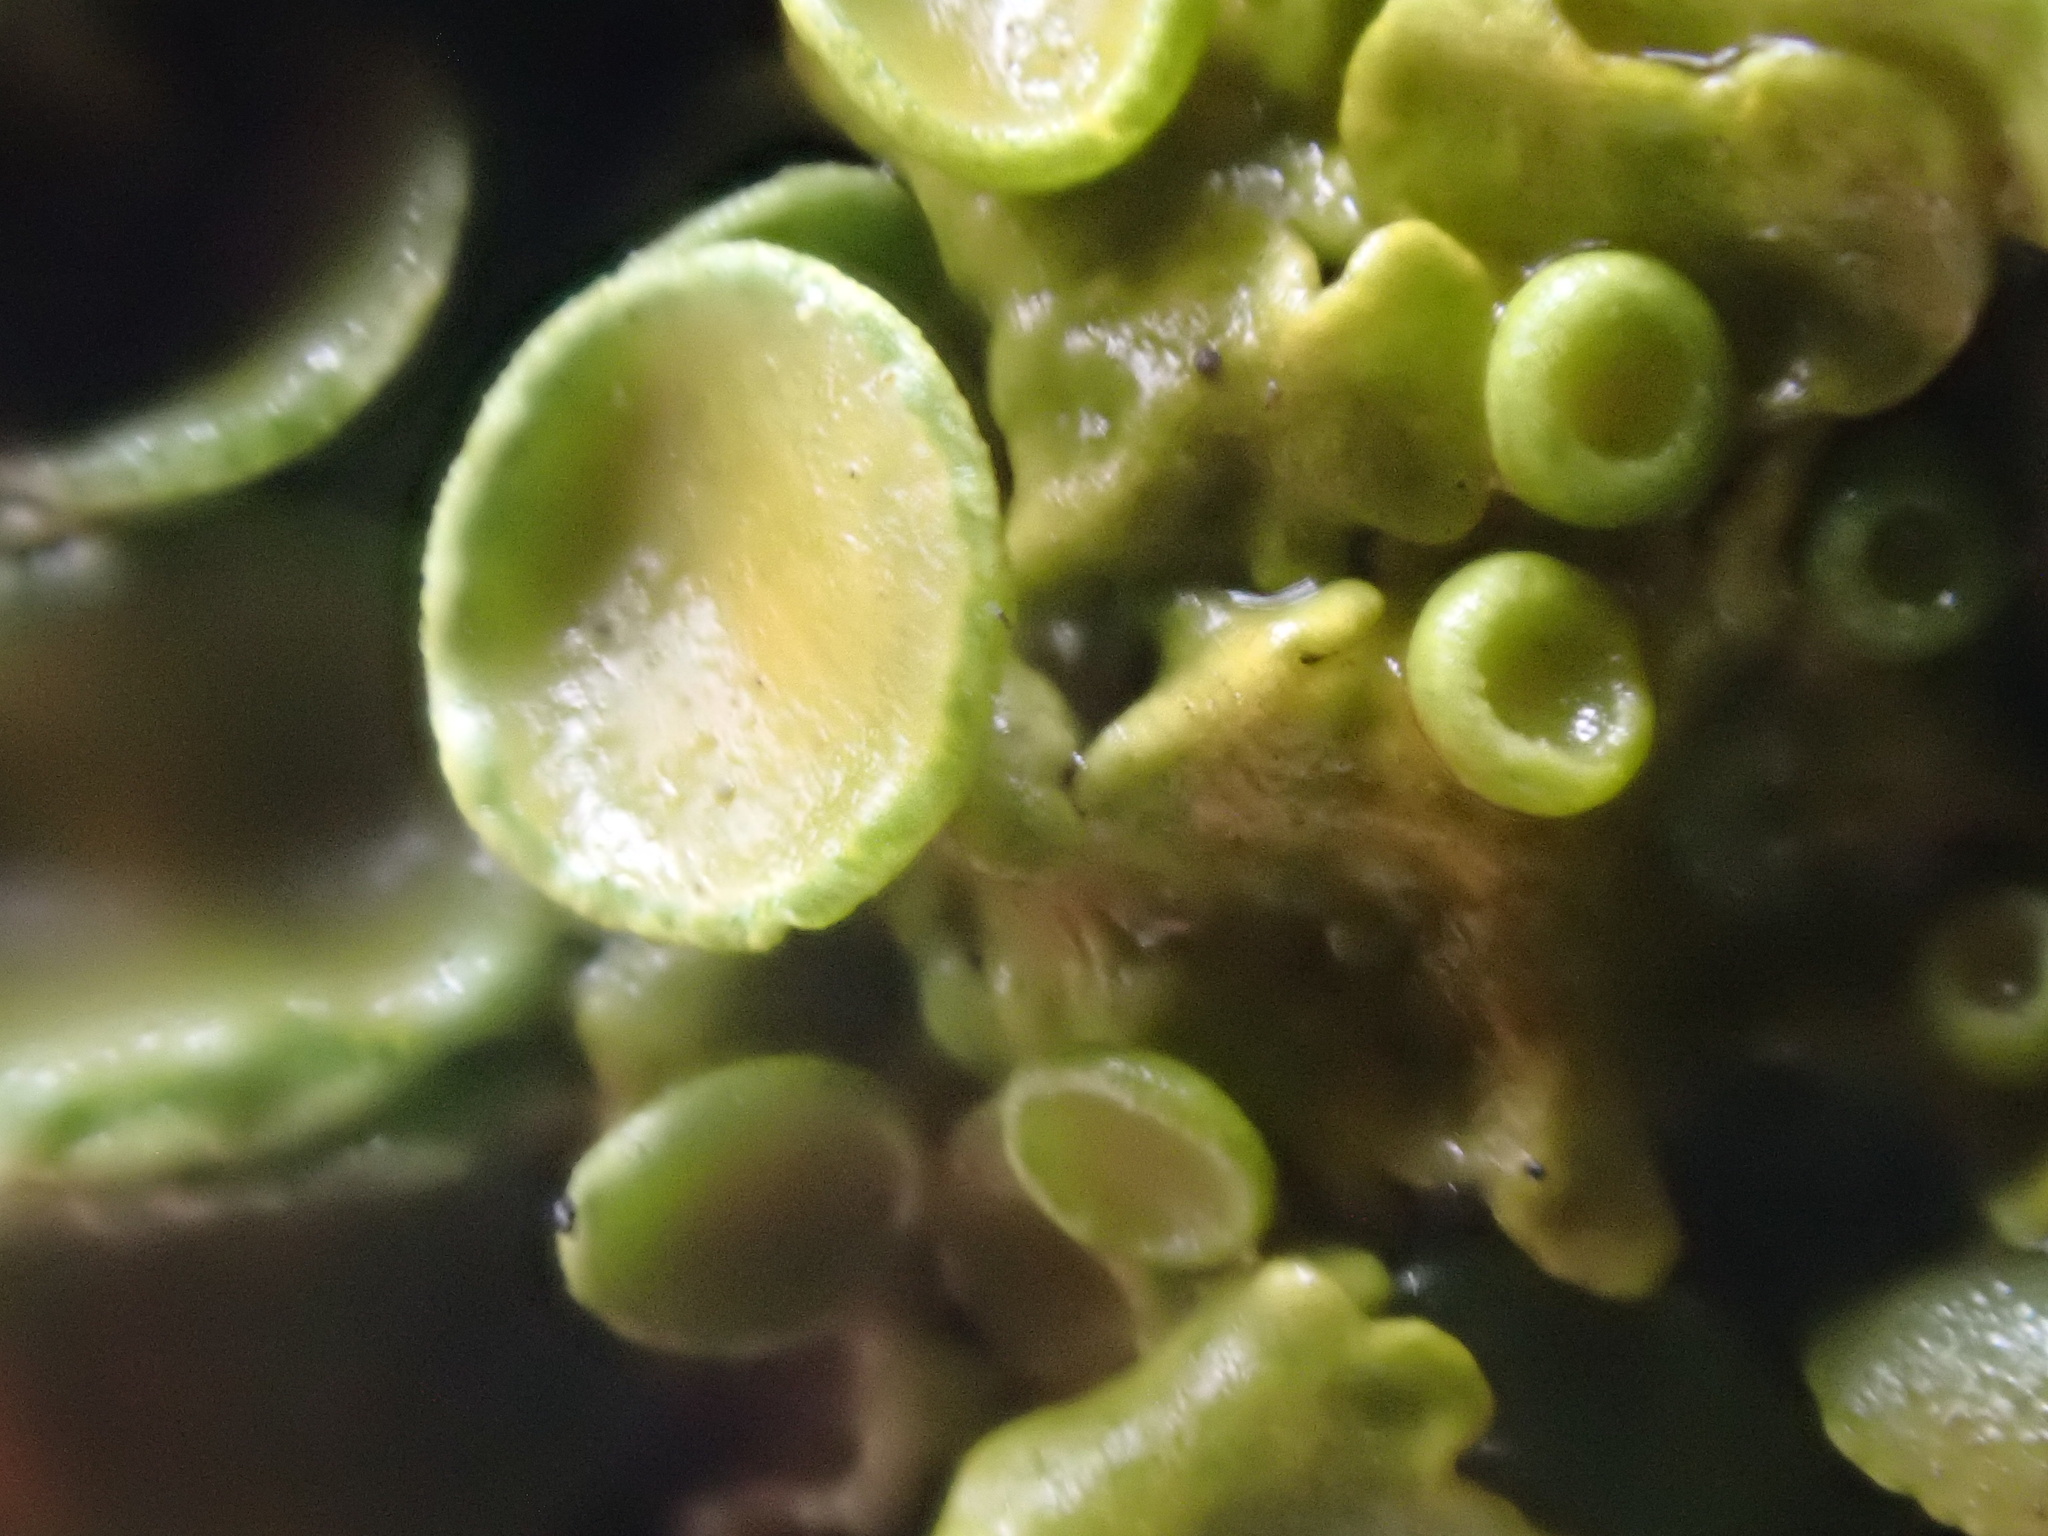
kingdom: Fungi
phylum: Ascomycota
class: Lecanoromycetes
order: Teloschistales
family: Teloschistaceae
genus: Xanthoria
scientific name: Xanthoria parietina
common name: Common orange lichen
